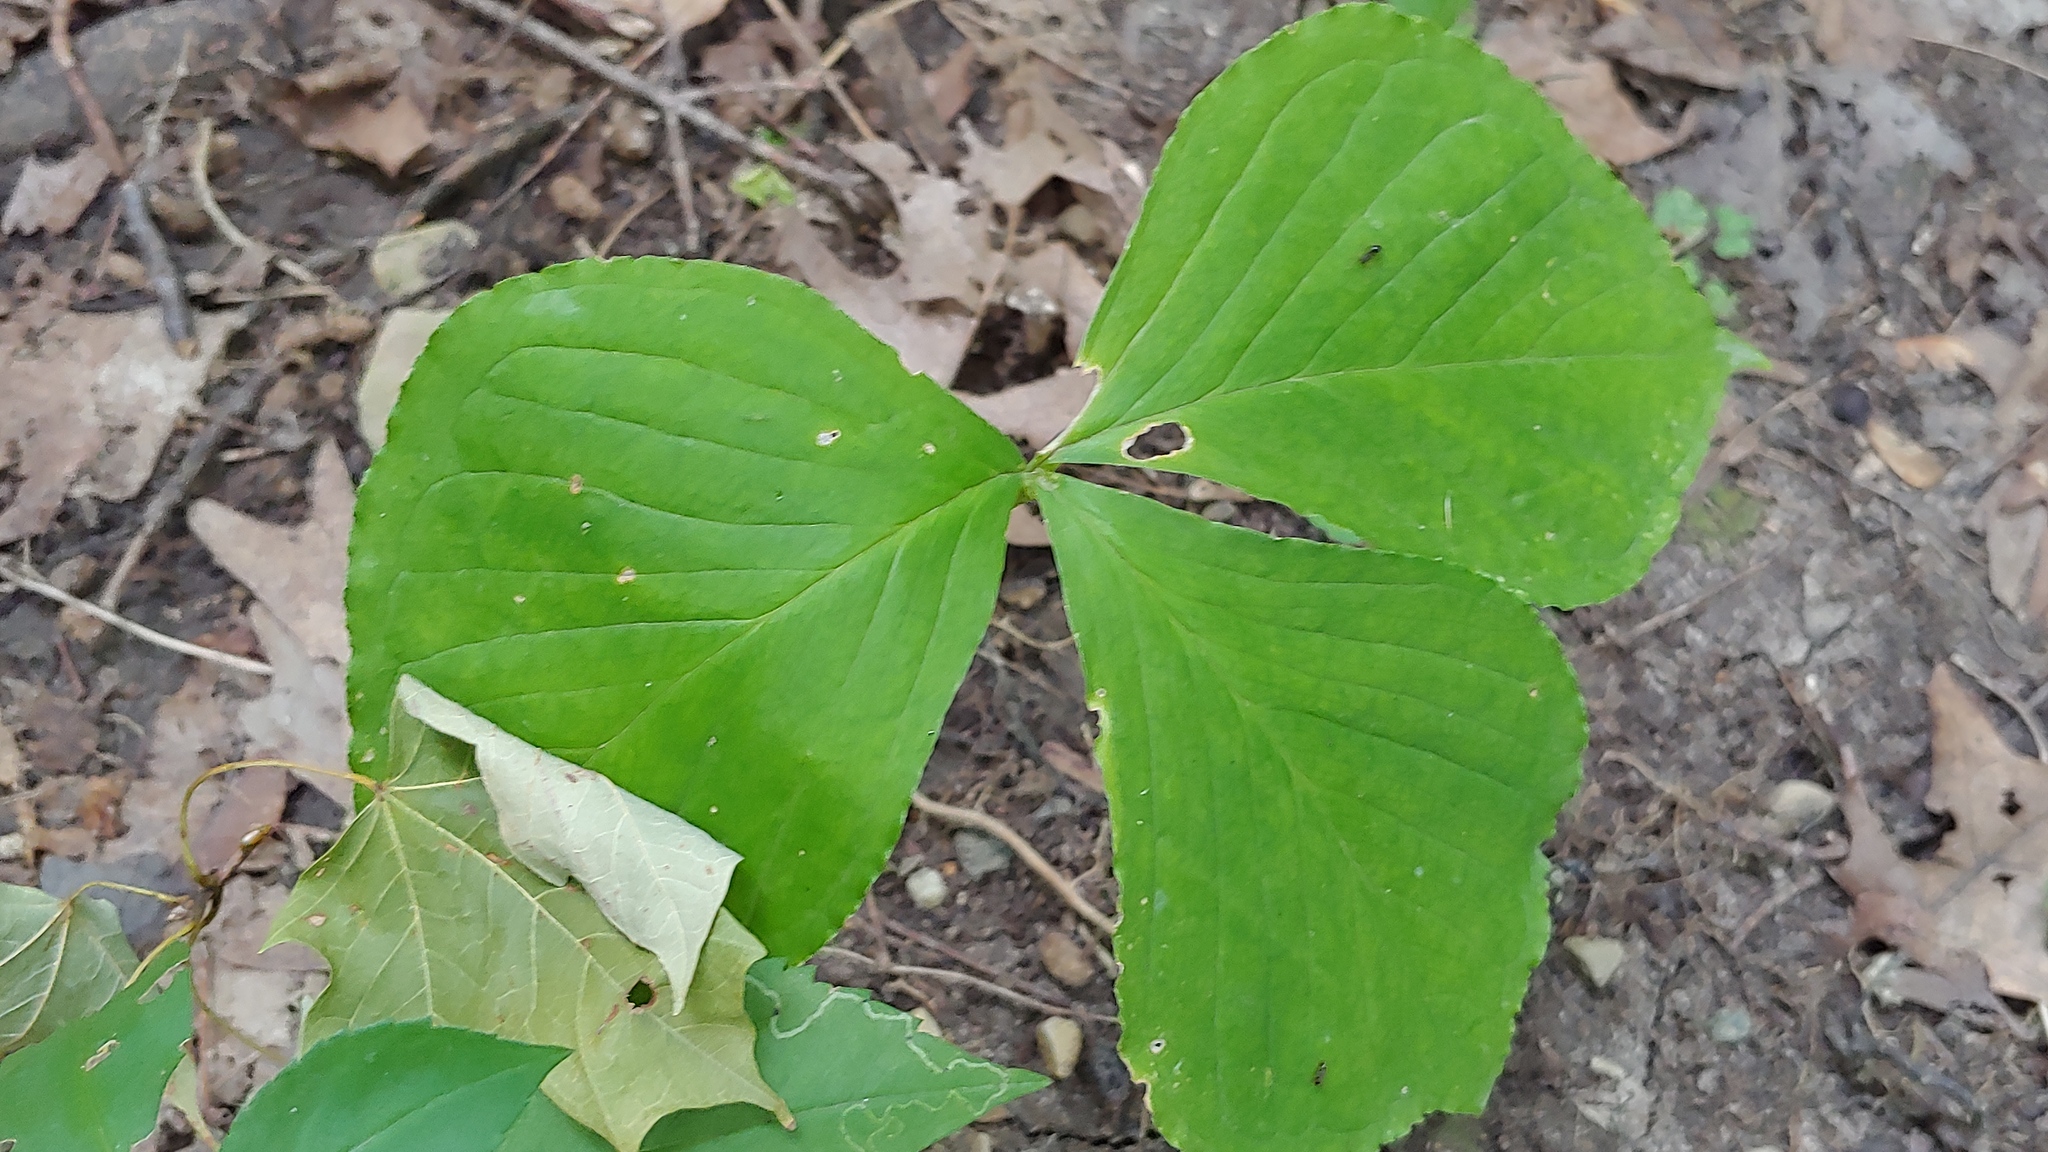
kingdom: Plantae
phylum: Tracheophyta
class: Liliopsida
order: Alismatales
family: Araceae
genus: Arisaema
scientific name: Arisaema triphyllum
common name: Jack-in-the-pulpit
